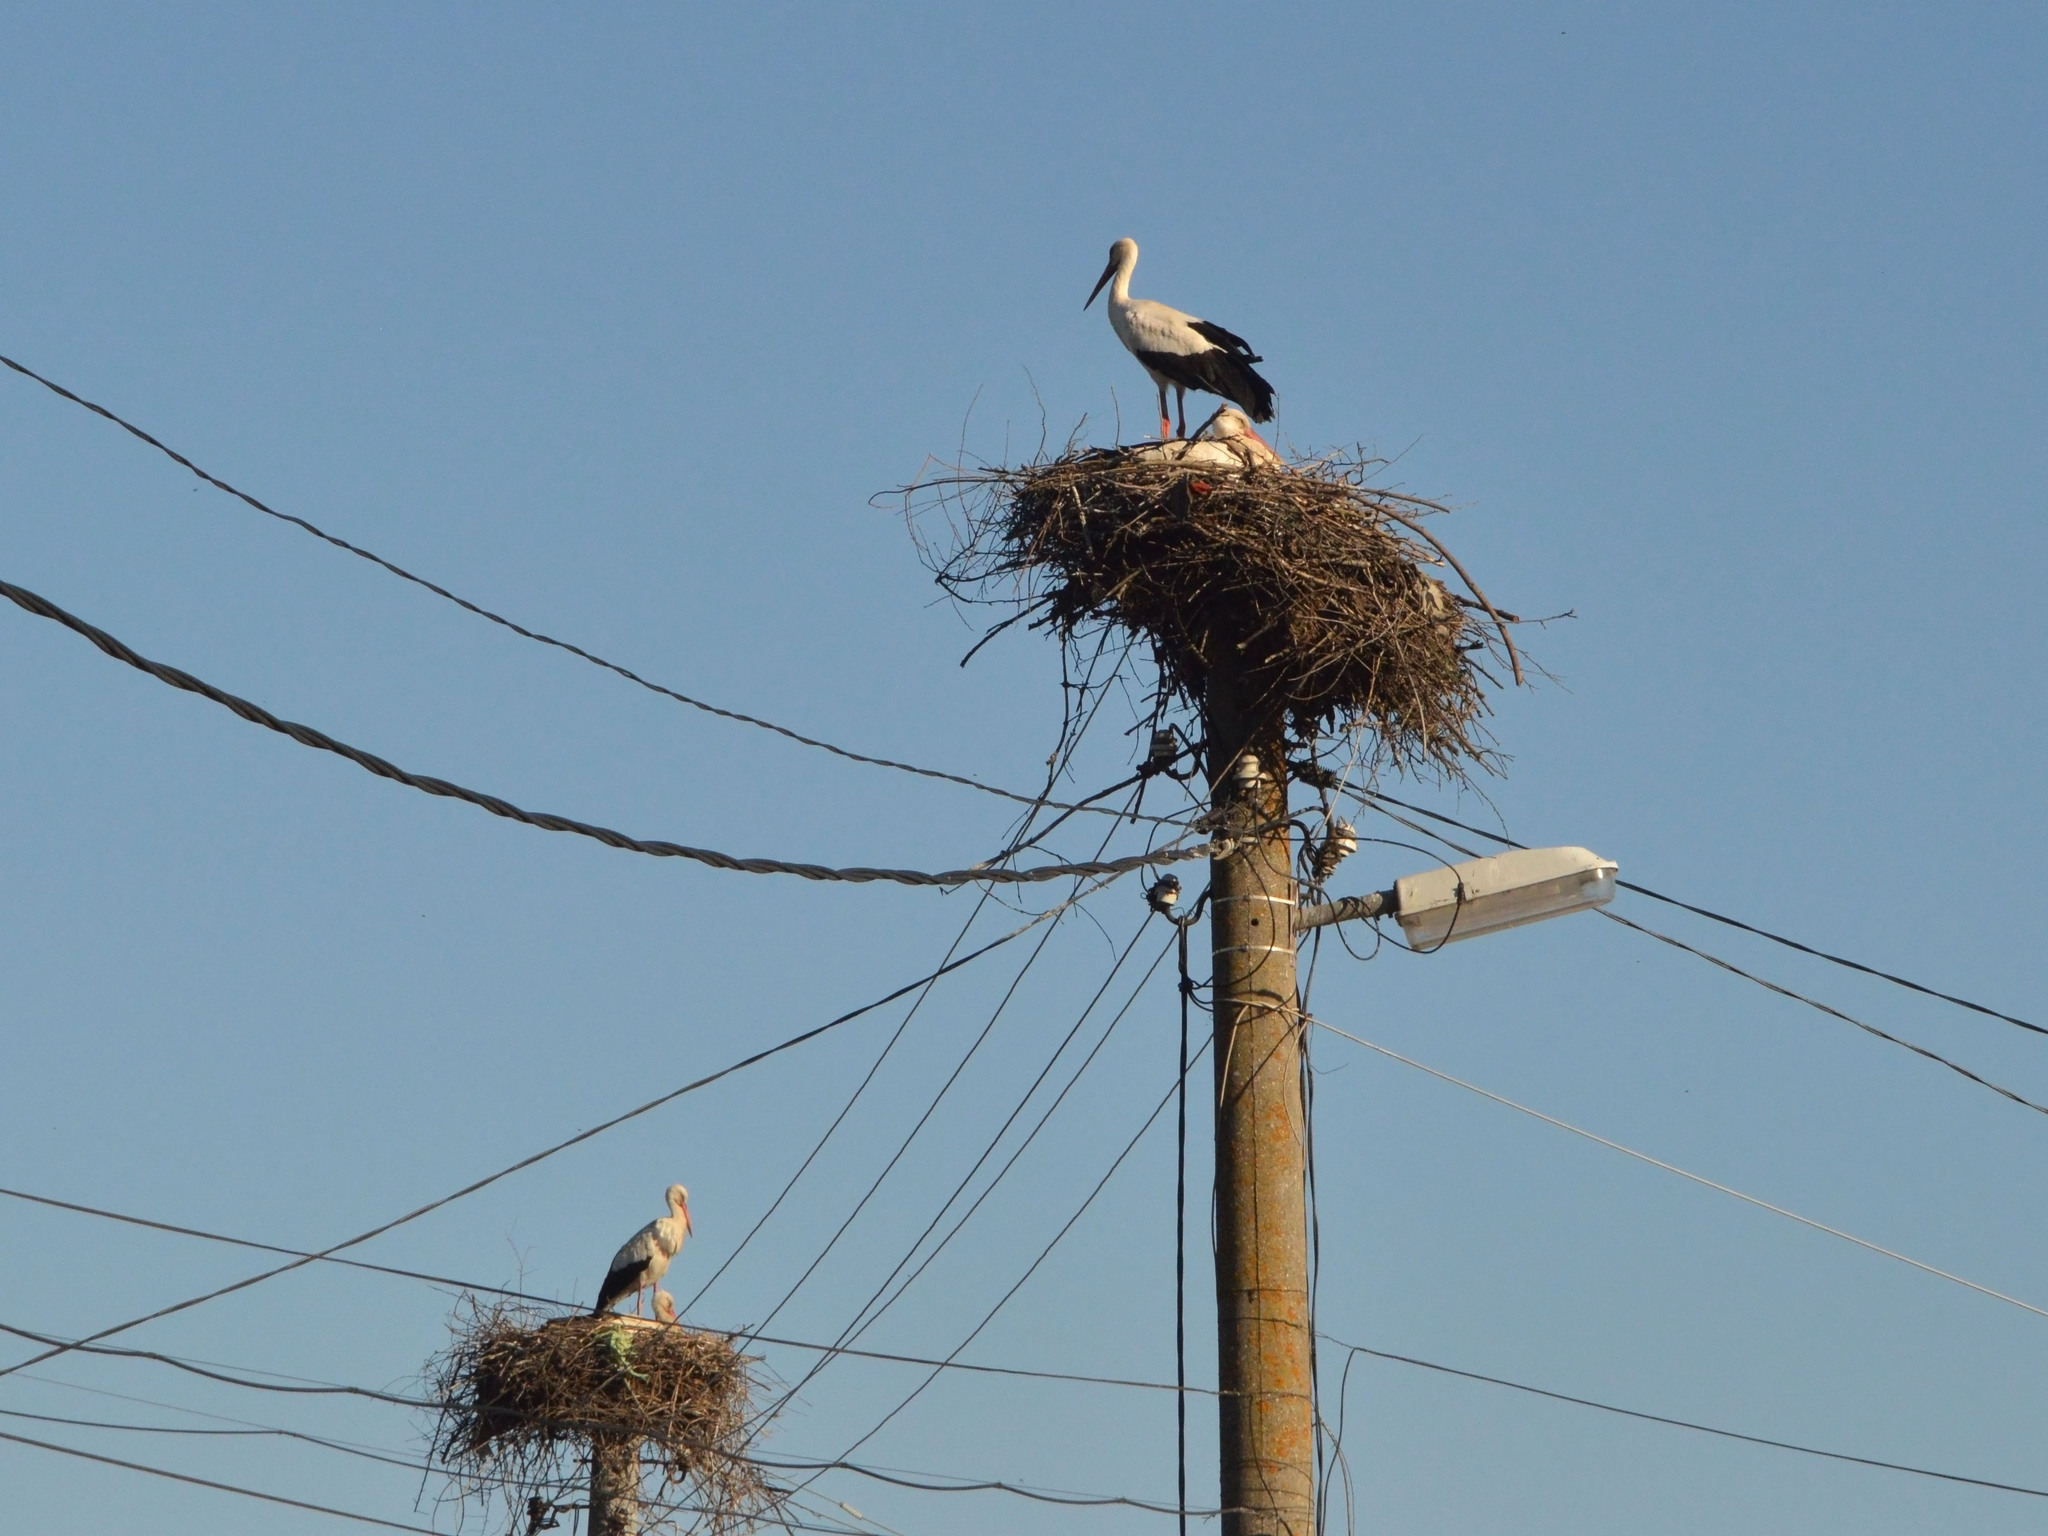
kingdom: Animalia
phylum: Chordata
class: Aves
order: Ciconiiformes
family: Ciconiidae
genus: Ciconia
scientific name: Ciconia ciconia
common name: White stork
